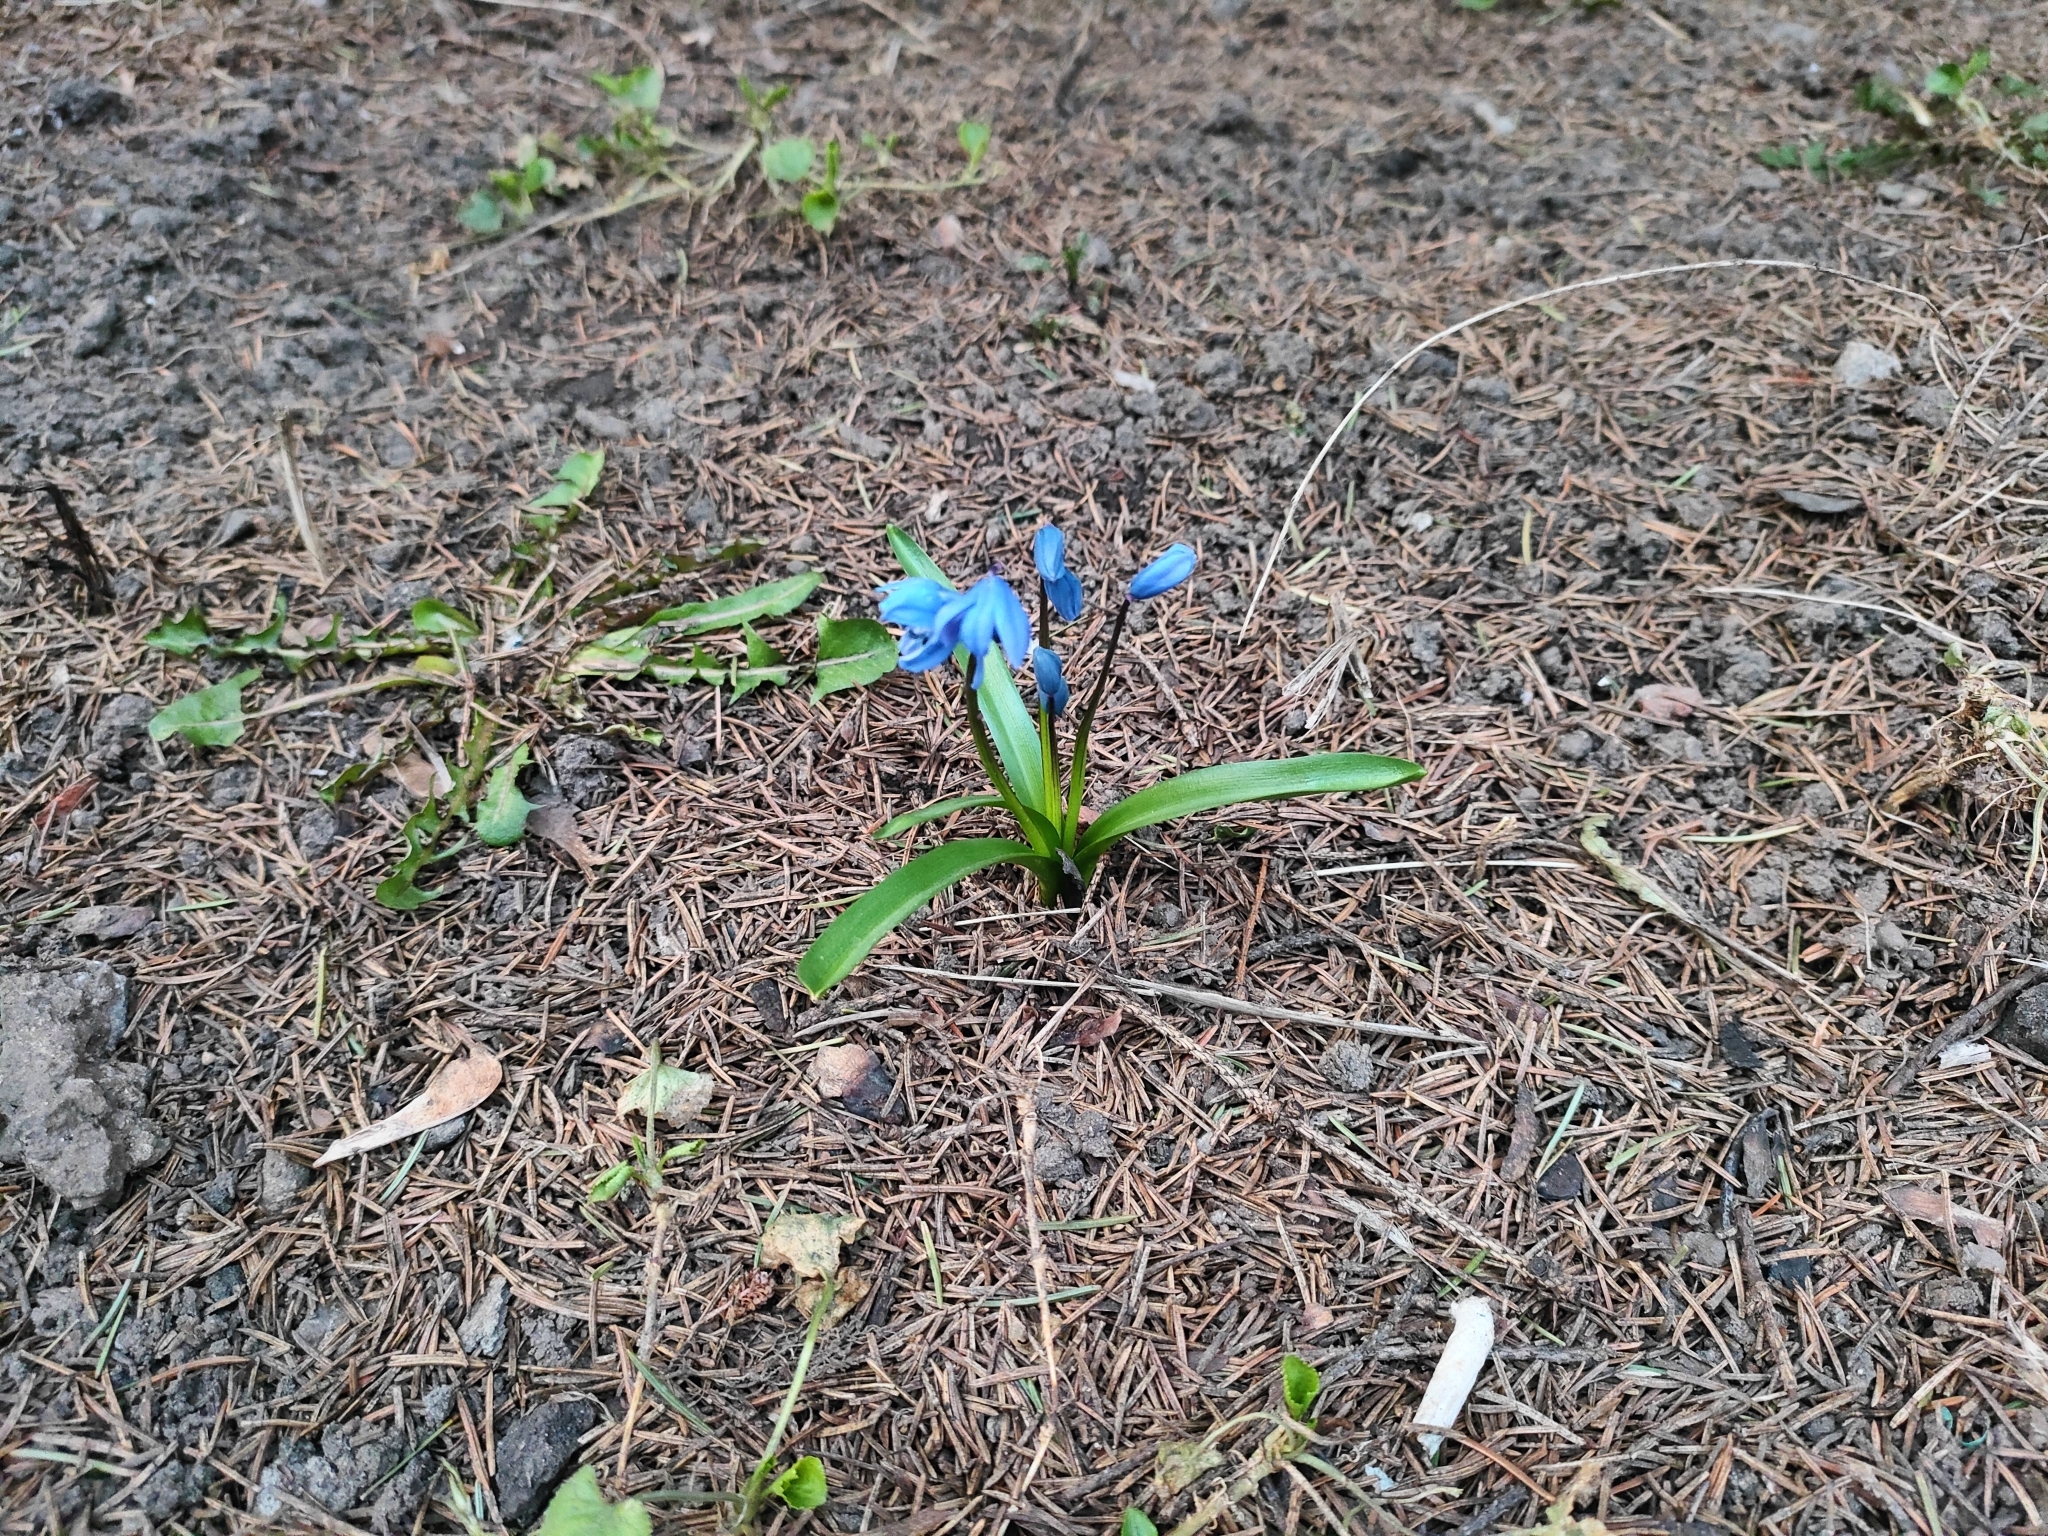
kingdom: Plantae
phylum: Tracheophyta
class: Liliopsida
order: Asparagales
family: Asparagaceae
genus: Scilla
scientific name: Scilla siberica
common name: Siberian squill
